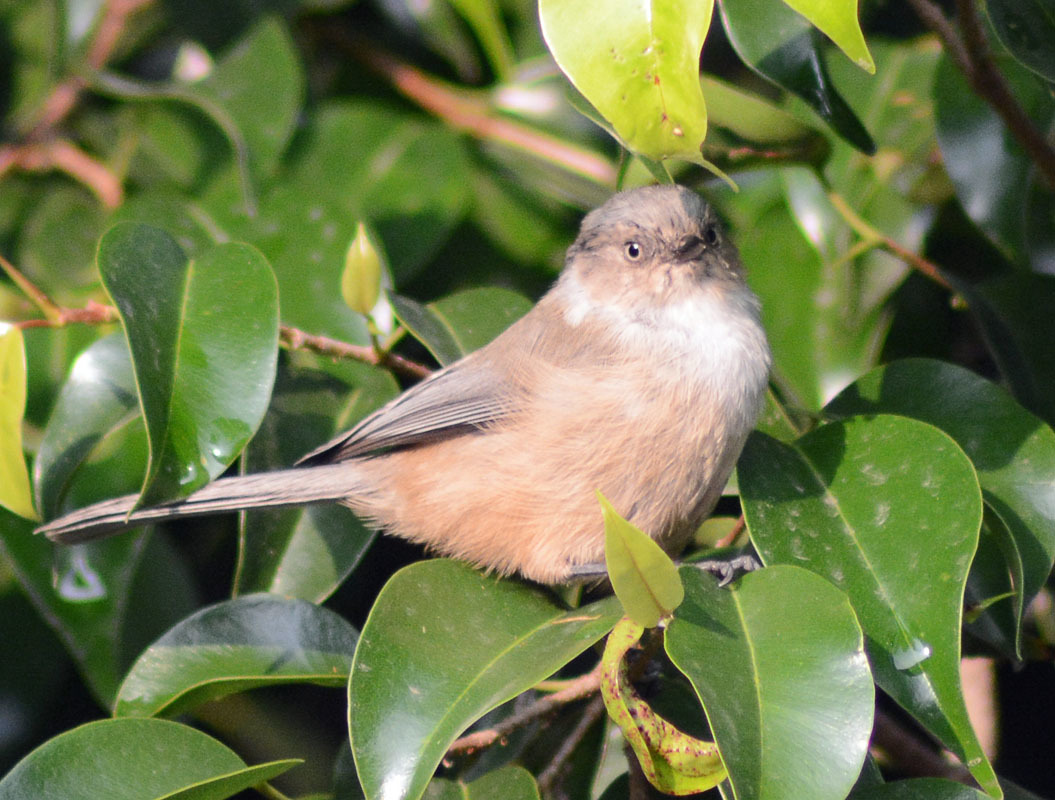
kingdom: Animalia
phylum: Chordata
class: Aves
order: Passeriformes
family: Aegithalidae
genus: Psaltriparus
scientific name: Psaltriparus minimus
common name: American bushtit
